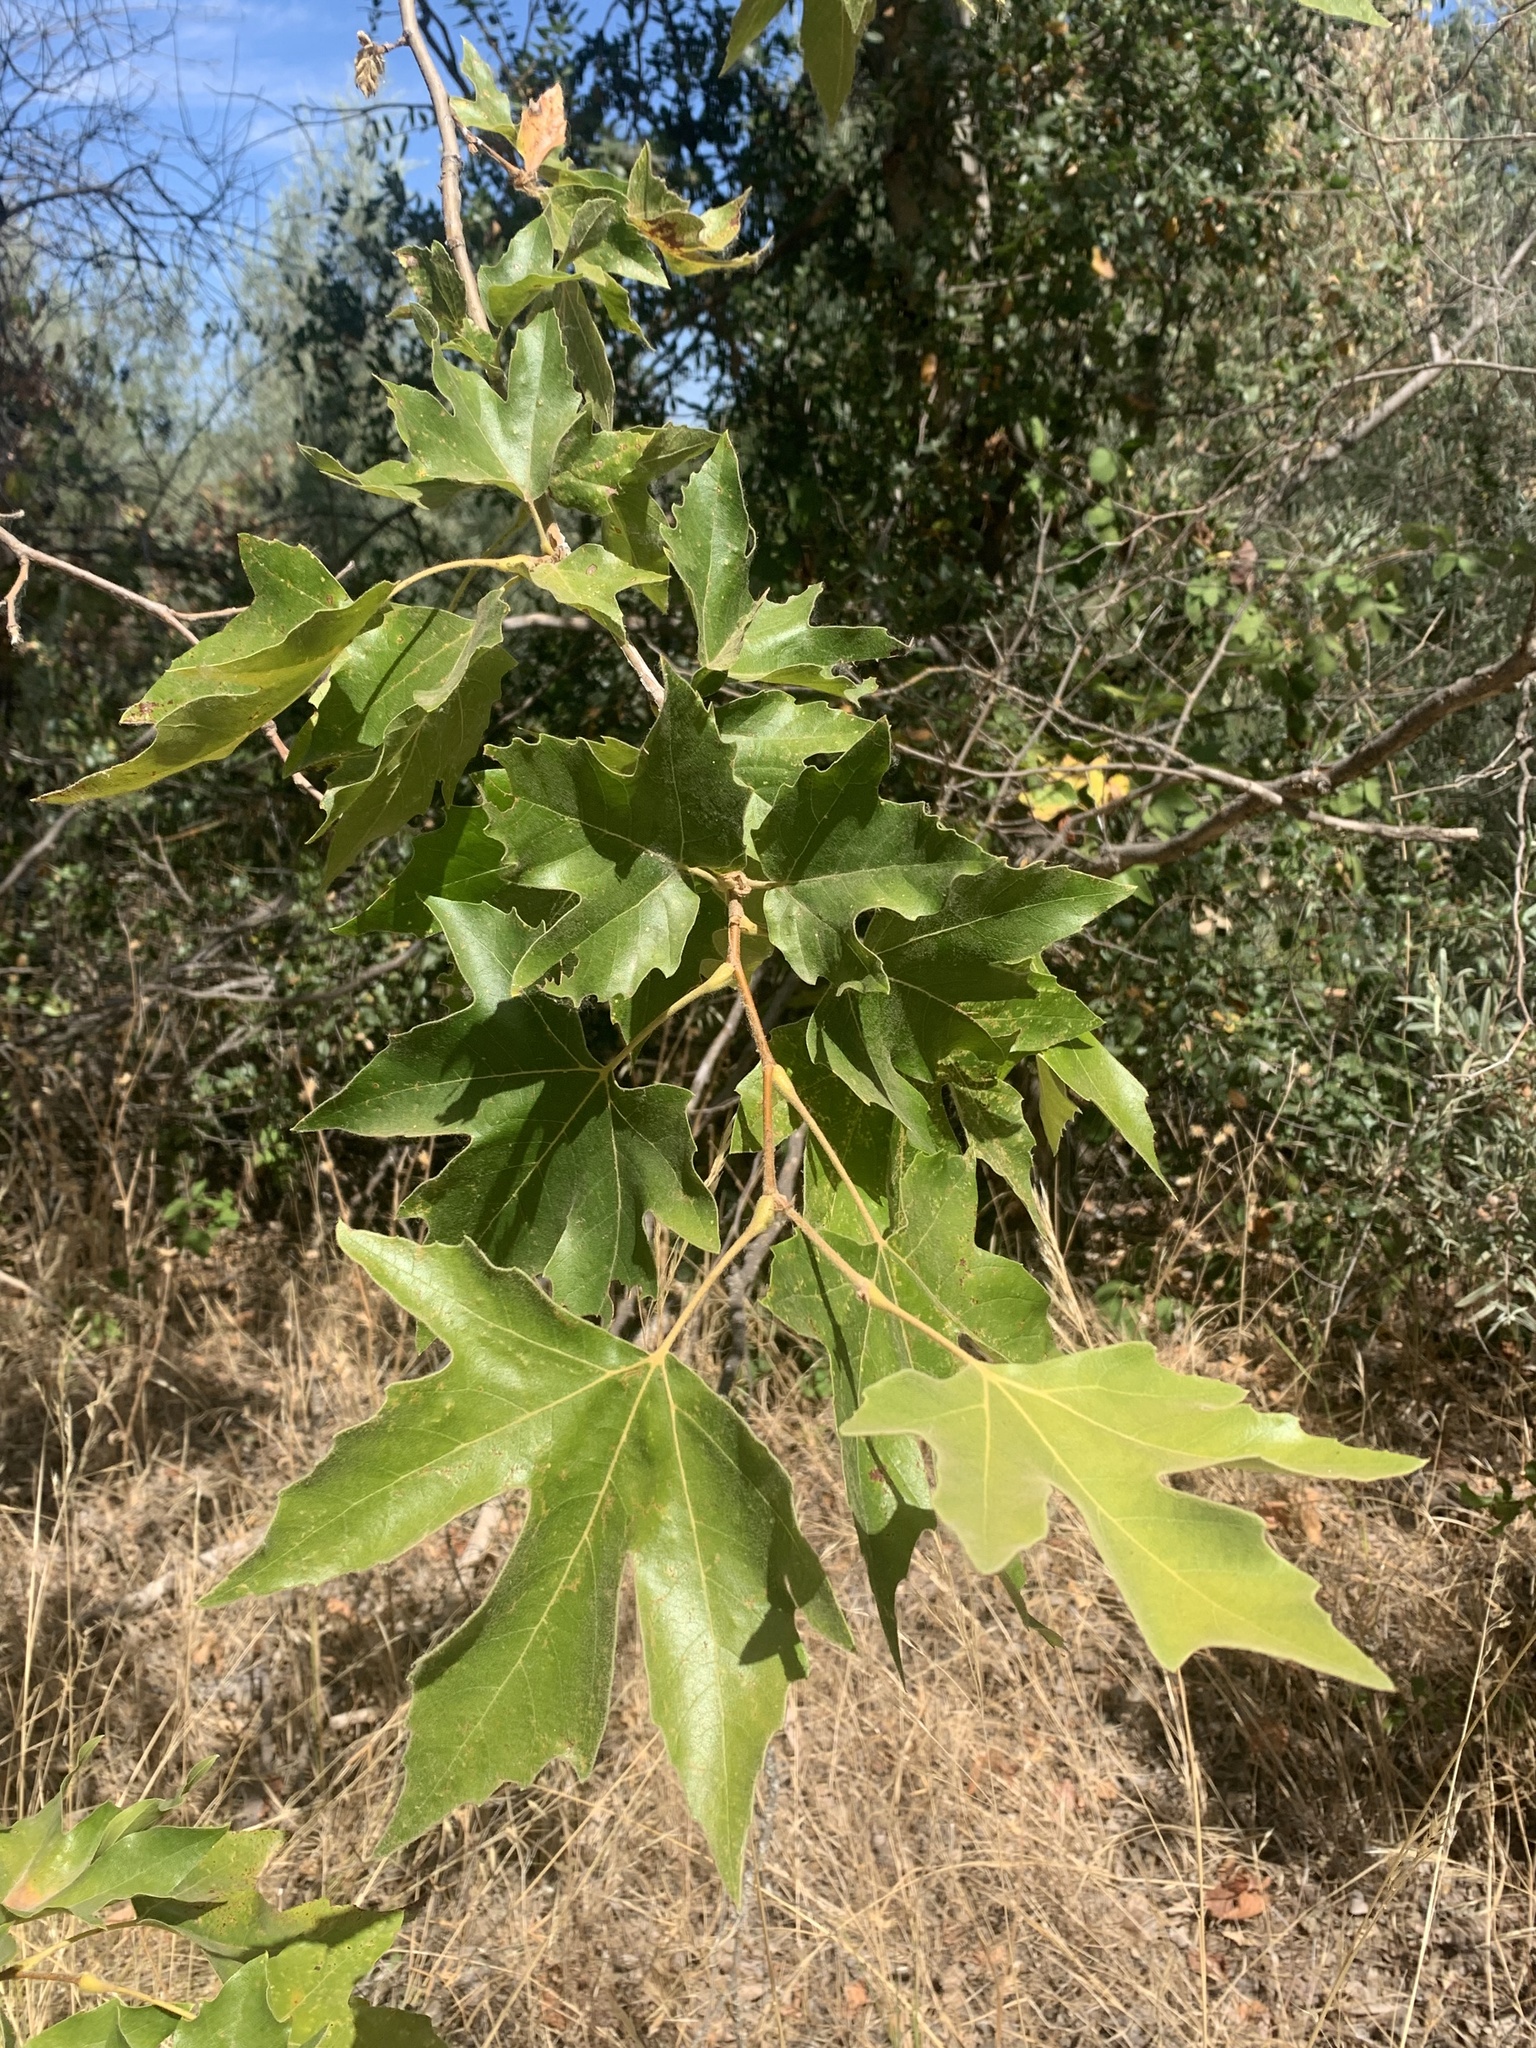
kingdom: Plantae
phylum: Tracheophyta
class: Magnoliopsida
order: Proteales
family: Platanaceae
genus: Platanus
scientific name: Platanus racemosa
